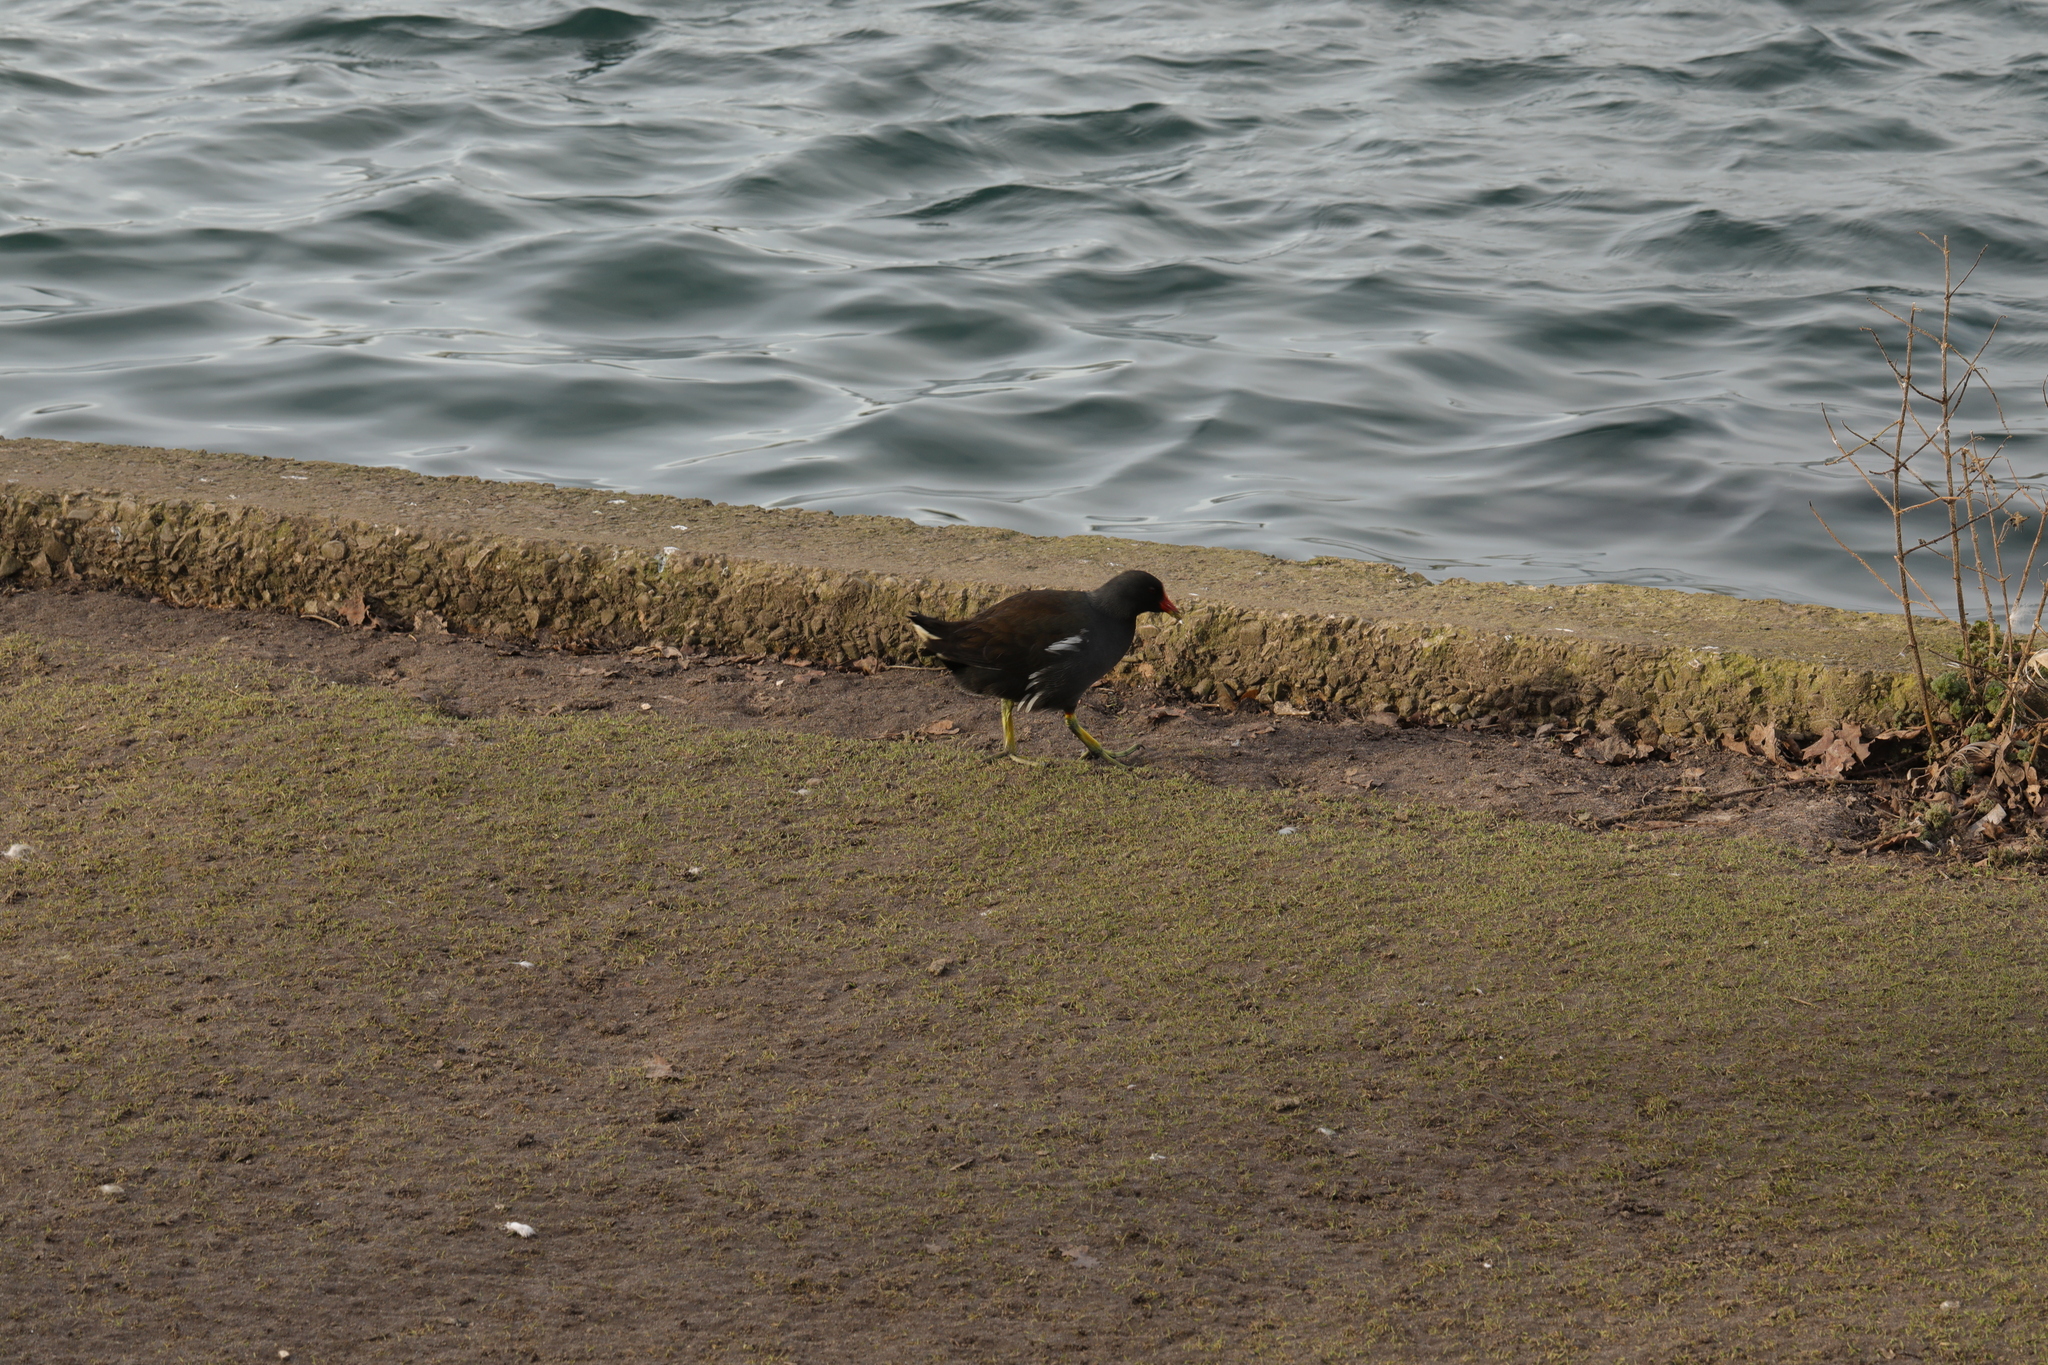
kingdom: Animalia
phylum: Chordata
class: Aves
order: Gruiformes
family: Rallidae
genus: Gallinula
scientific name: Gallinula chloropus
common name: Common moorhen
